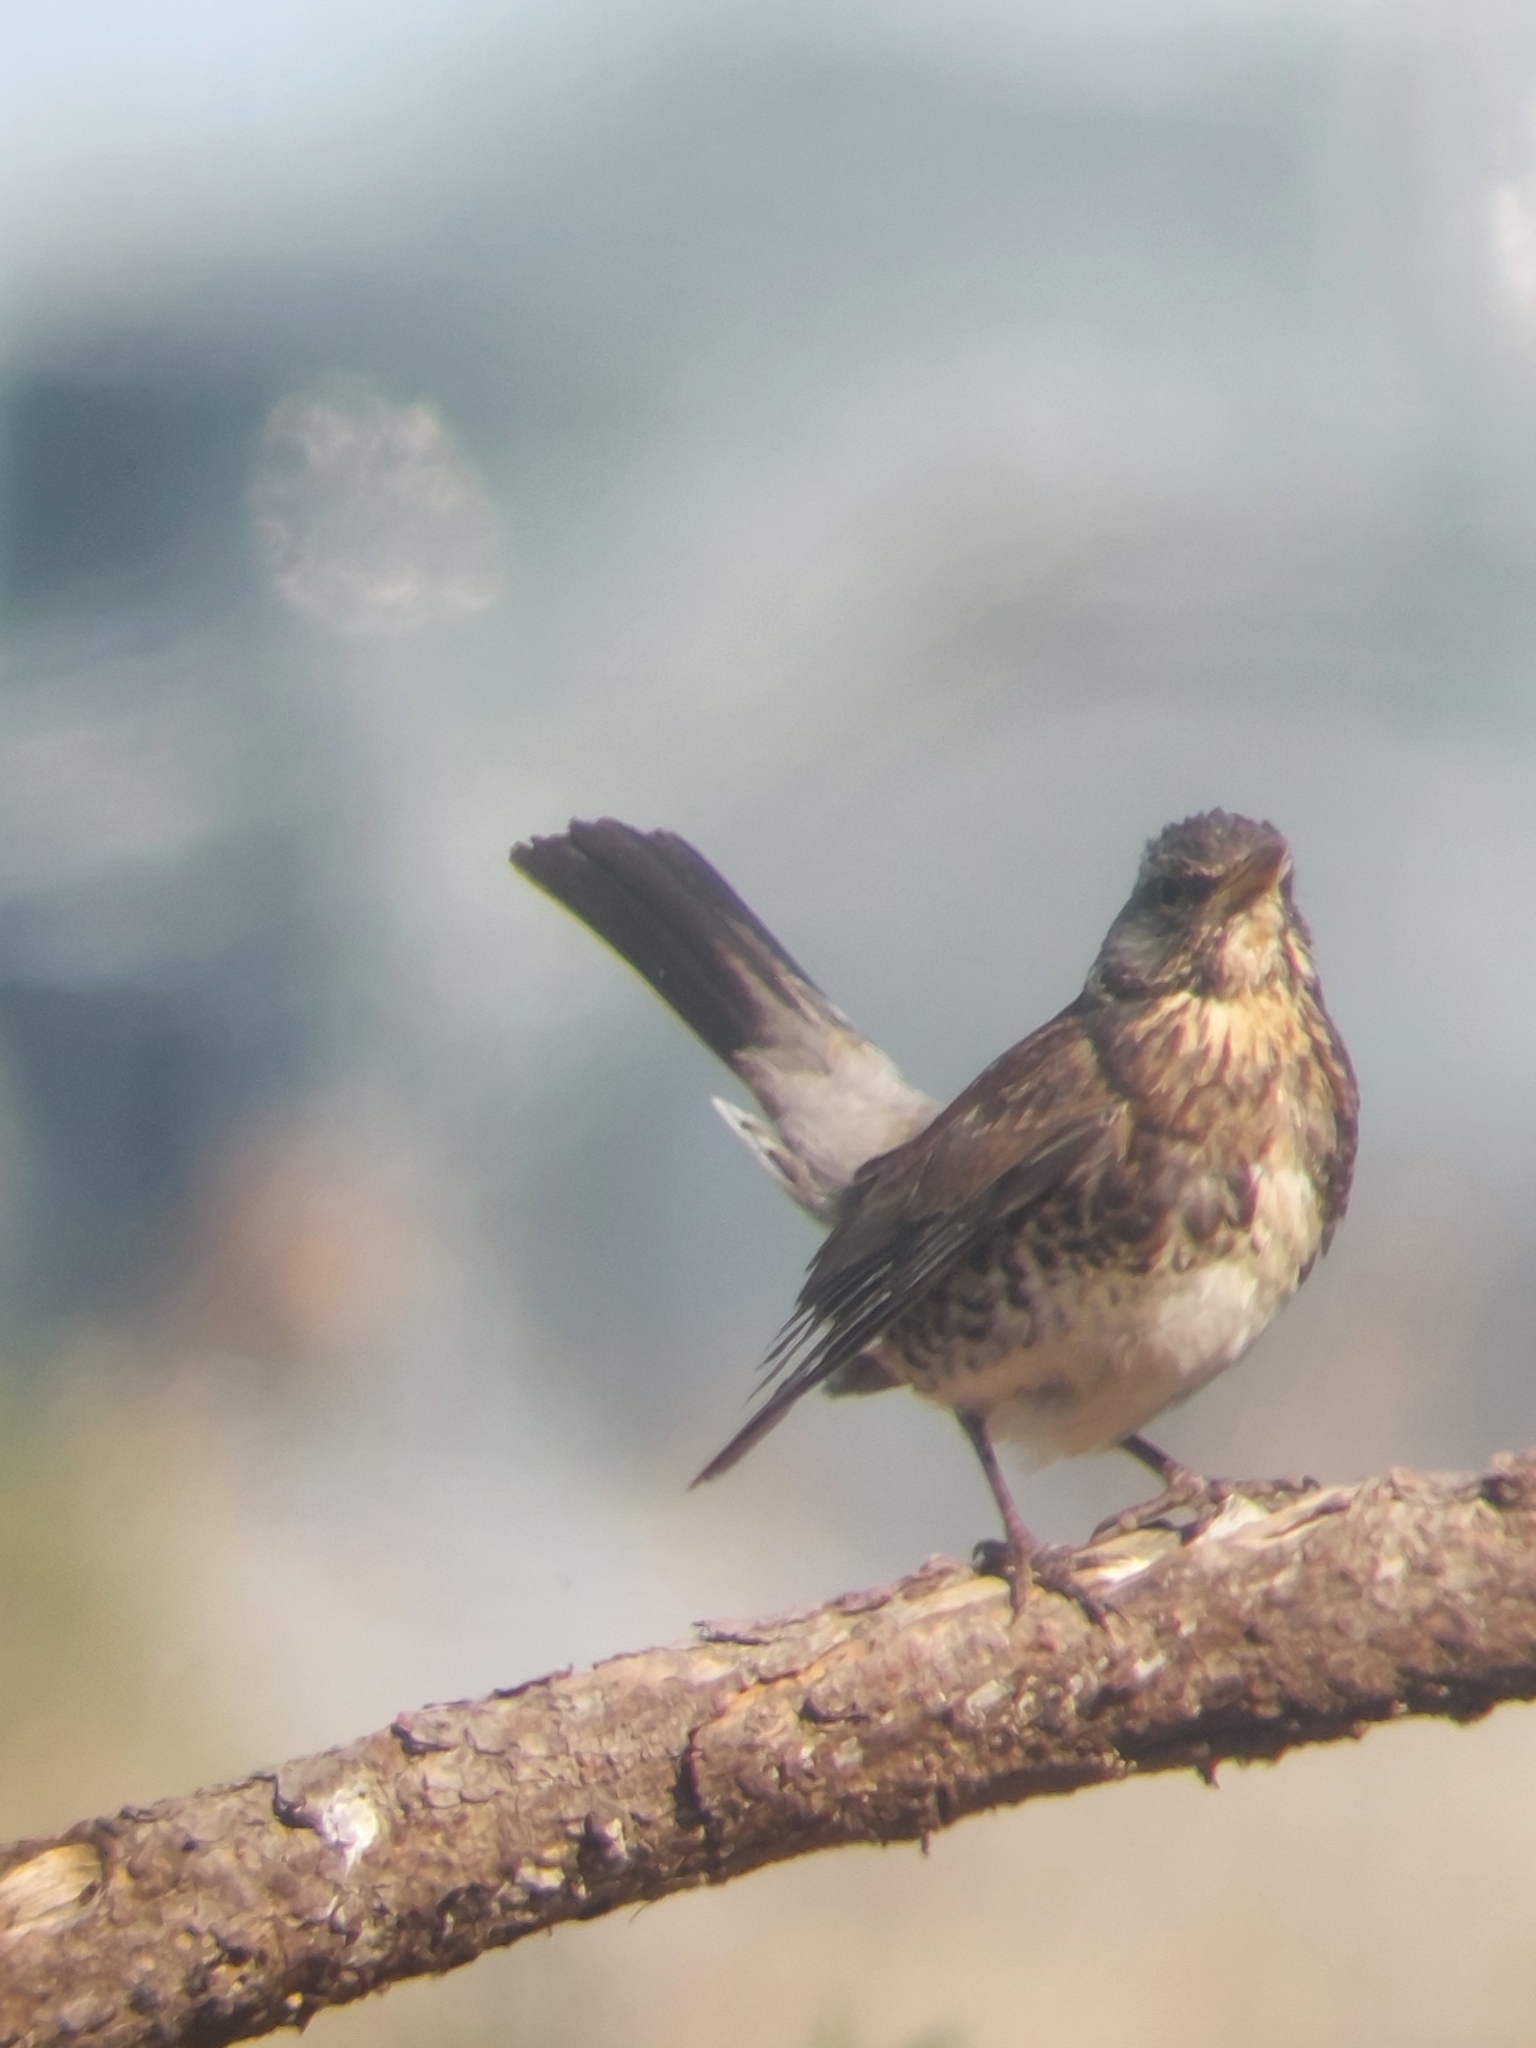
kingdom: Animalia
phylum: Chordata
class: Aves
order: Passeriformes
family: Turdidae
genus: Turdus
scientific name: Turdus pilaris
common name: Fieldfare
